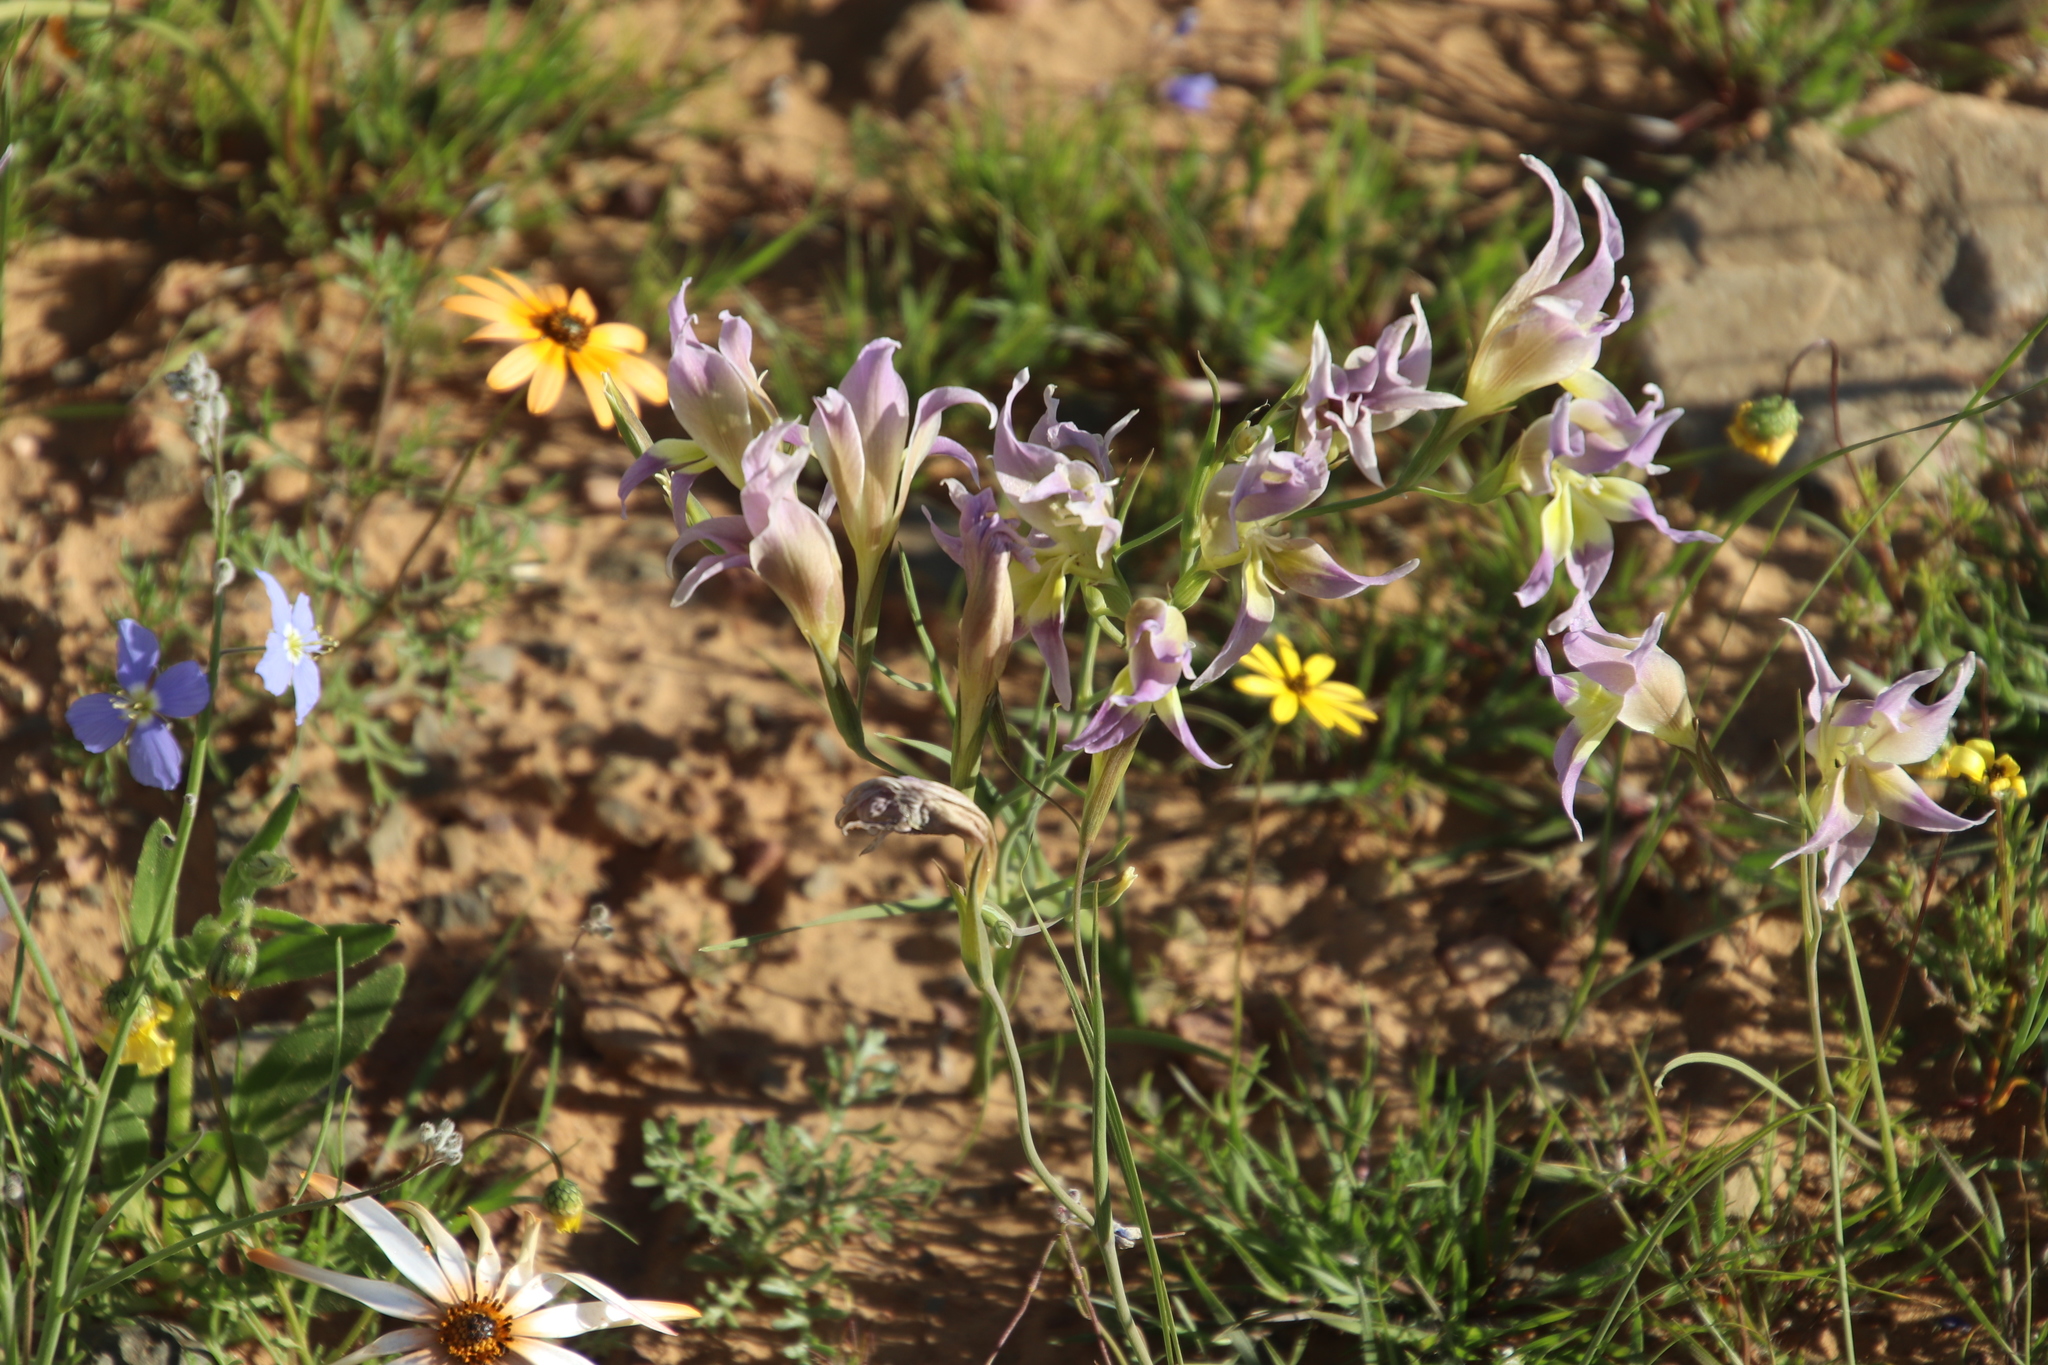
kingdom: Plantae
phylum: Tracheophyta
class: Liliopsida
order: Asparagales
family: Iridaceae
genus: Gladiolus
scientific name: Gladiolus venustus
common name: Purple kalkoentjie
